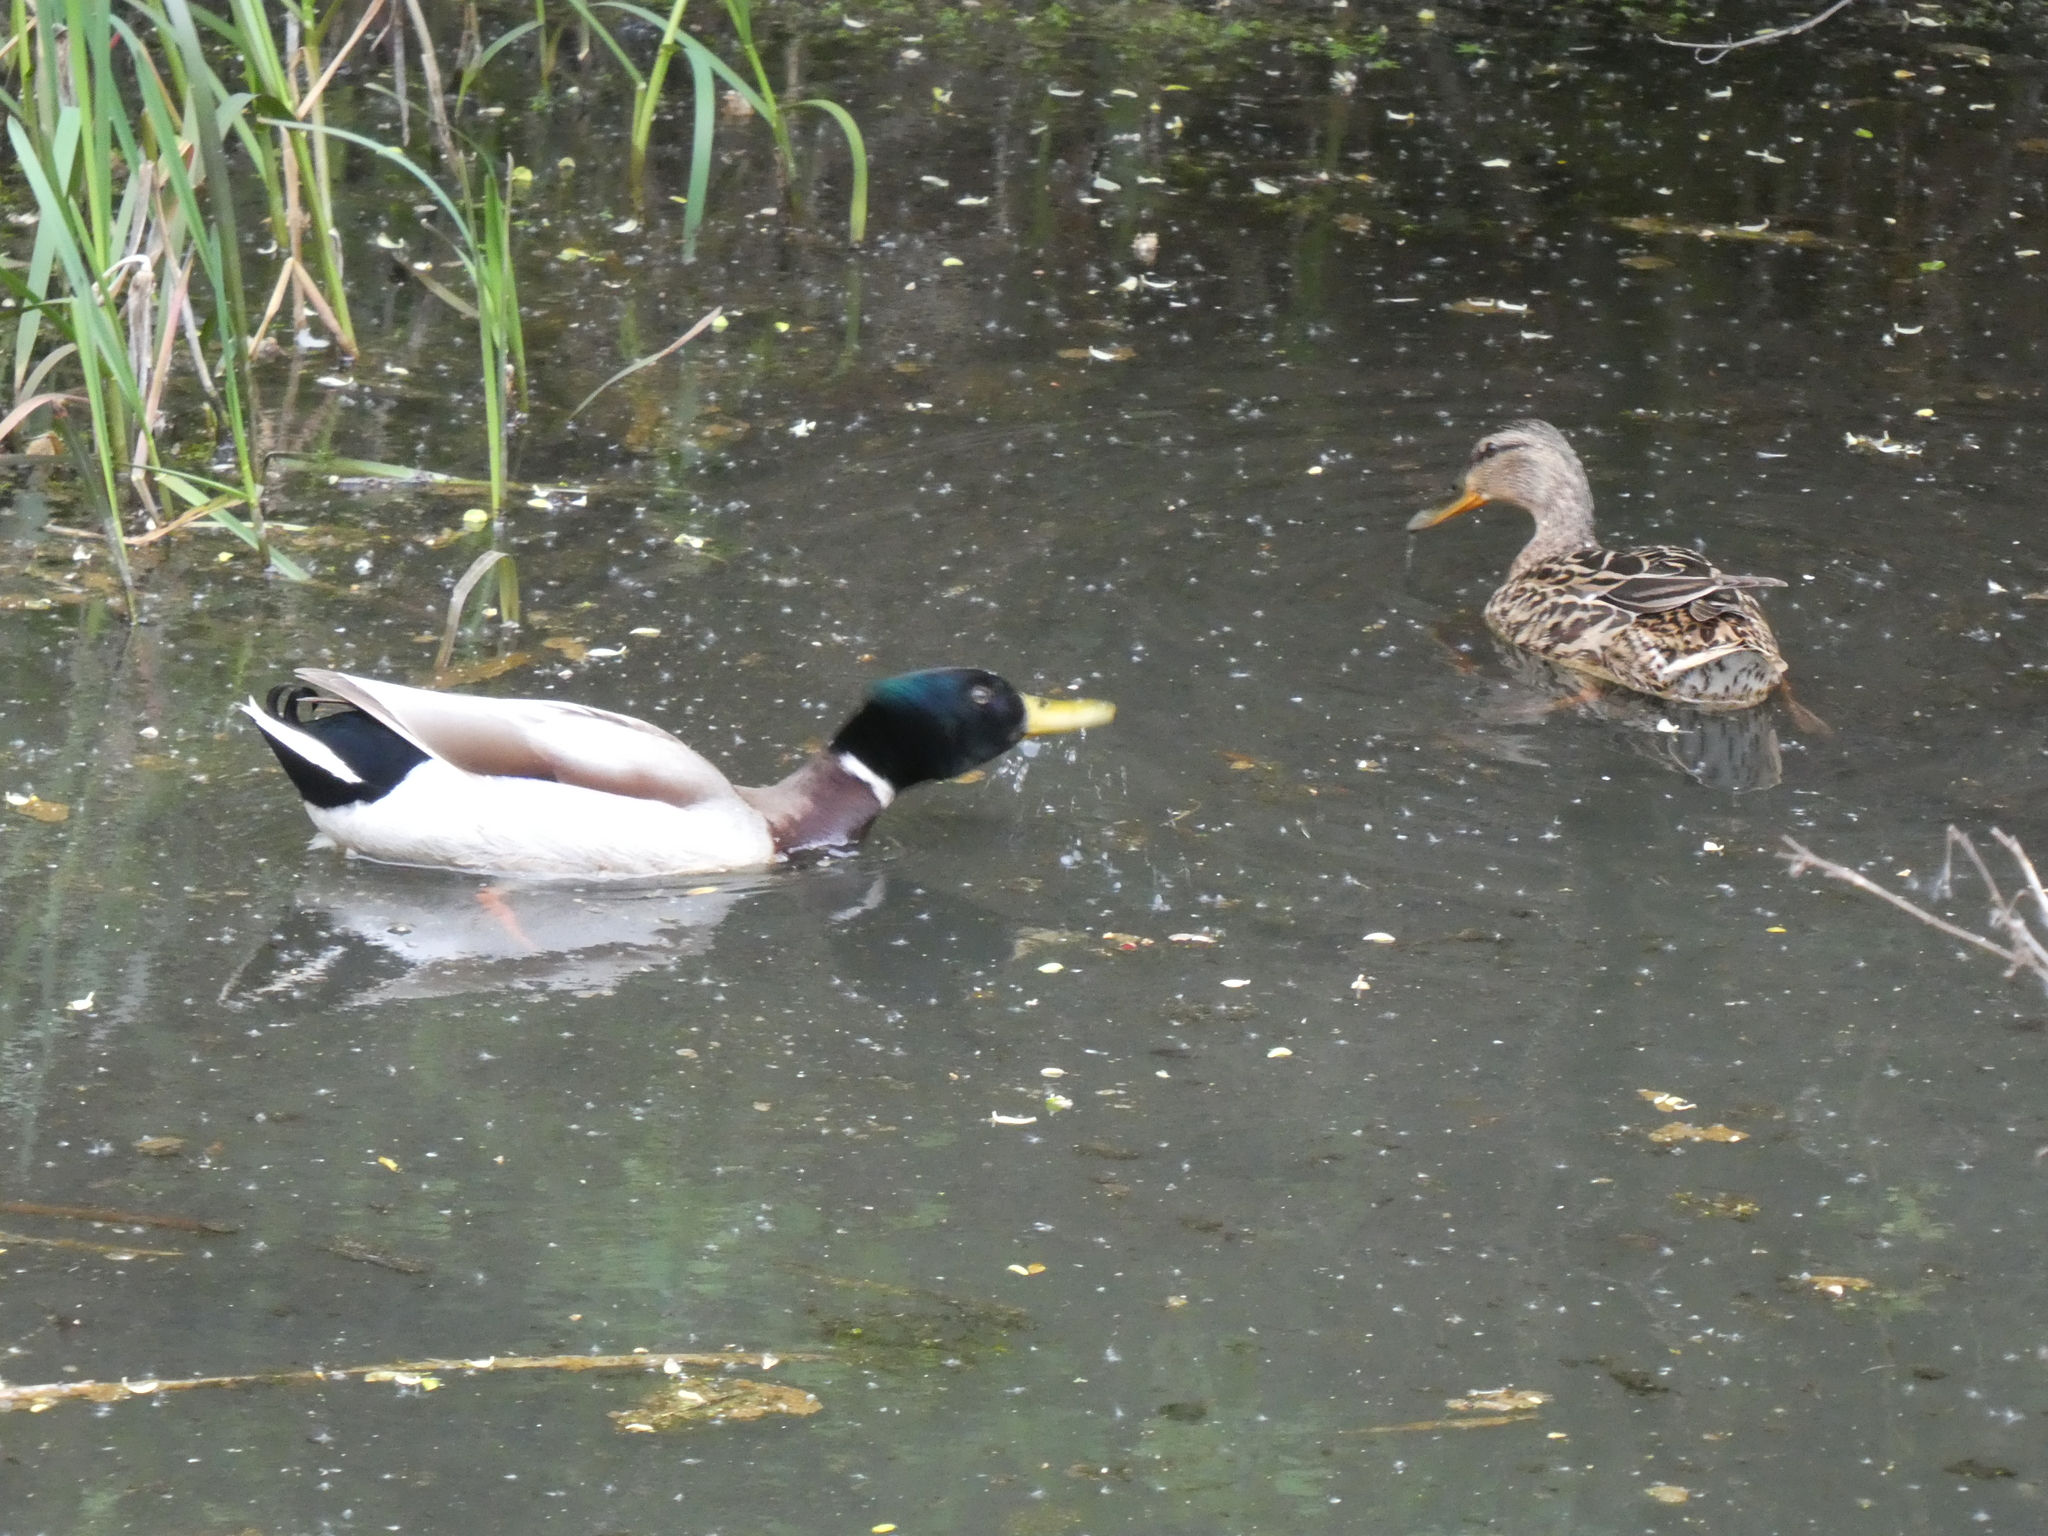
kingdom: Animalia
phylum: Chordata
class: Aves
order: Anseriformes
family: Anatidae
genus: Anas
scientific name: Anas platyrhynchos
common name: Mallard
